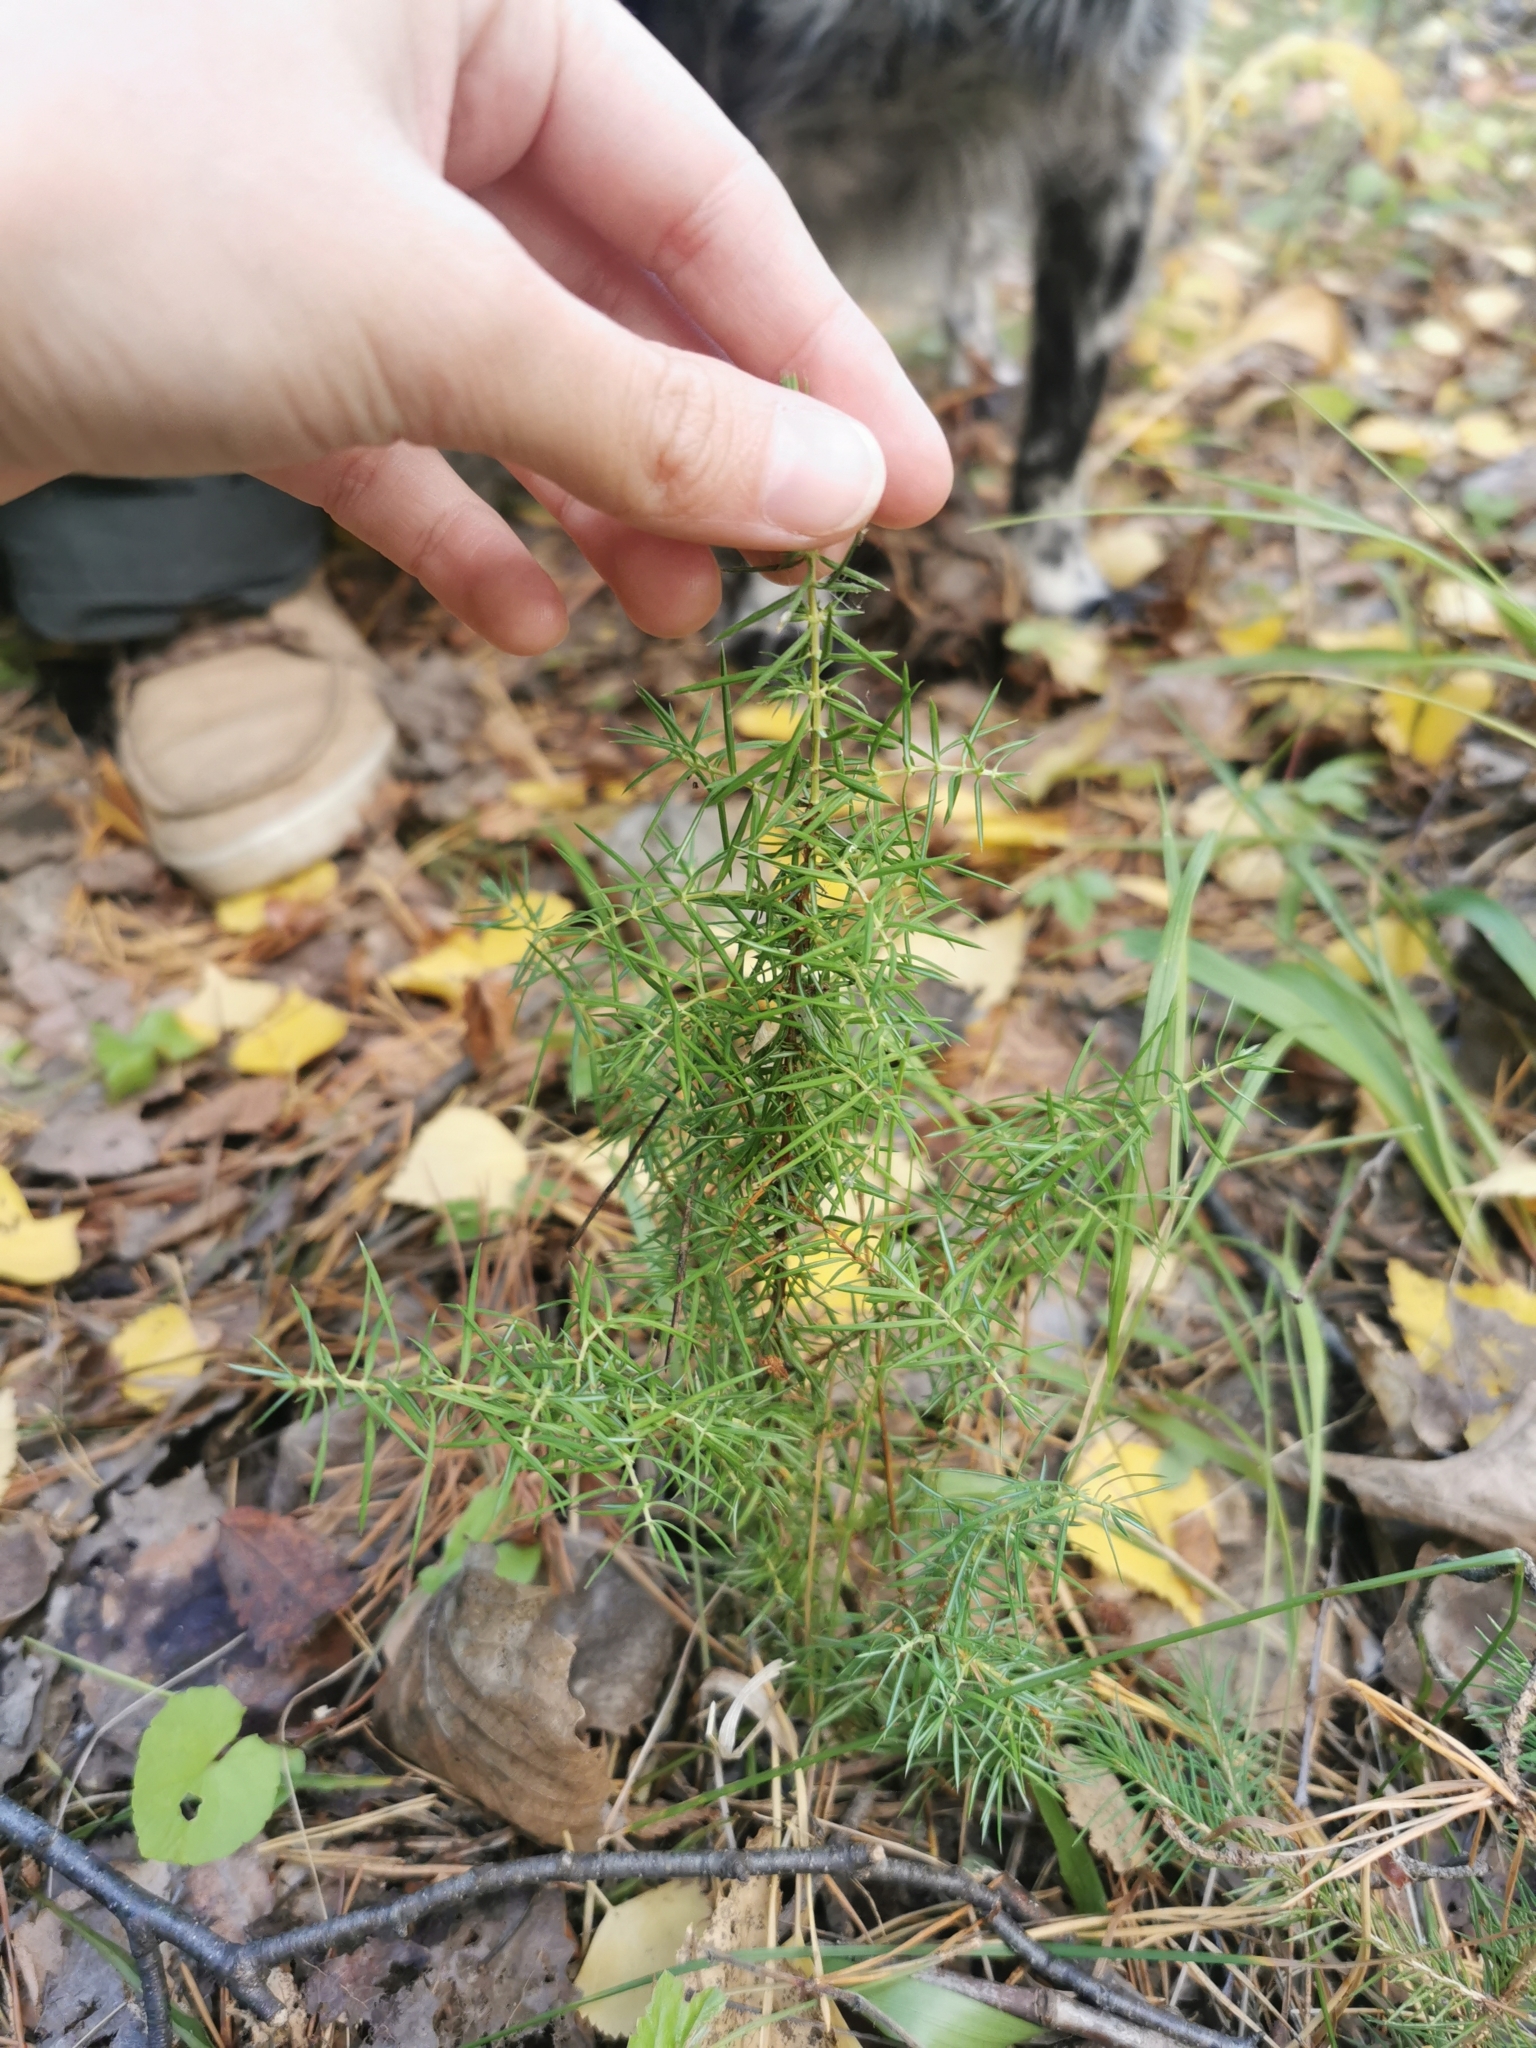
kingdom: Plantae
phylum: Tracheophyta
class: Pinopsida
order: Pinales
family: Cupressaceae
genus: Juniperus
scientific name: Juniperus communis
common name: Common juniper
